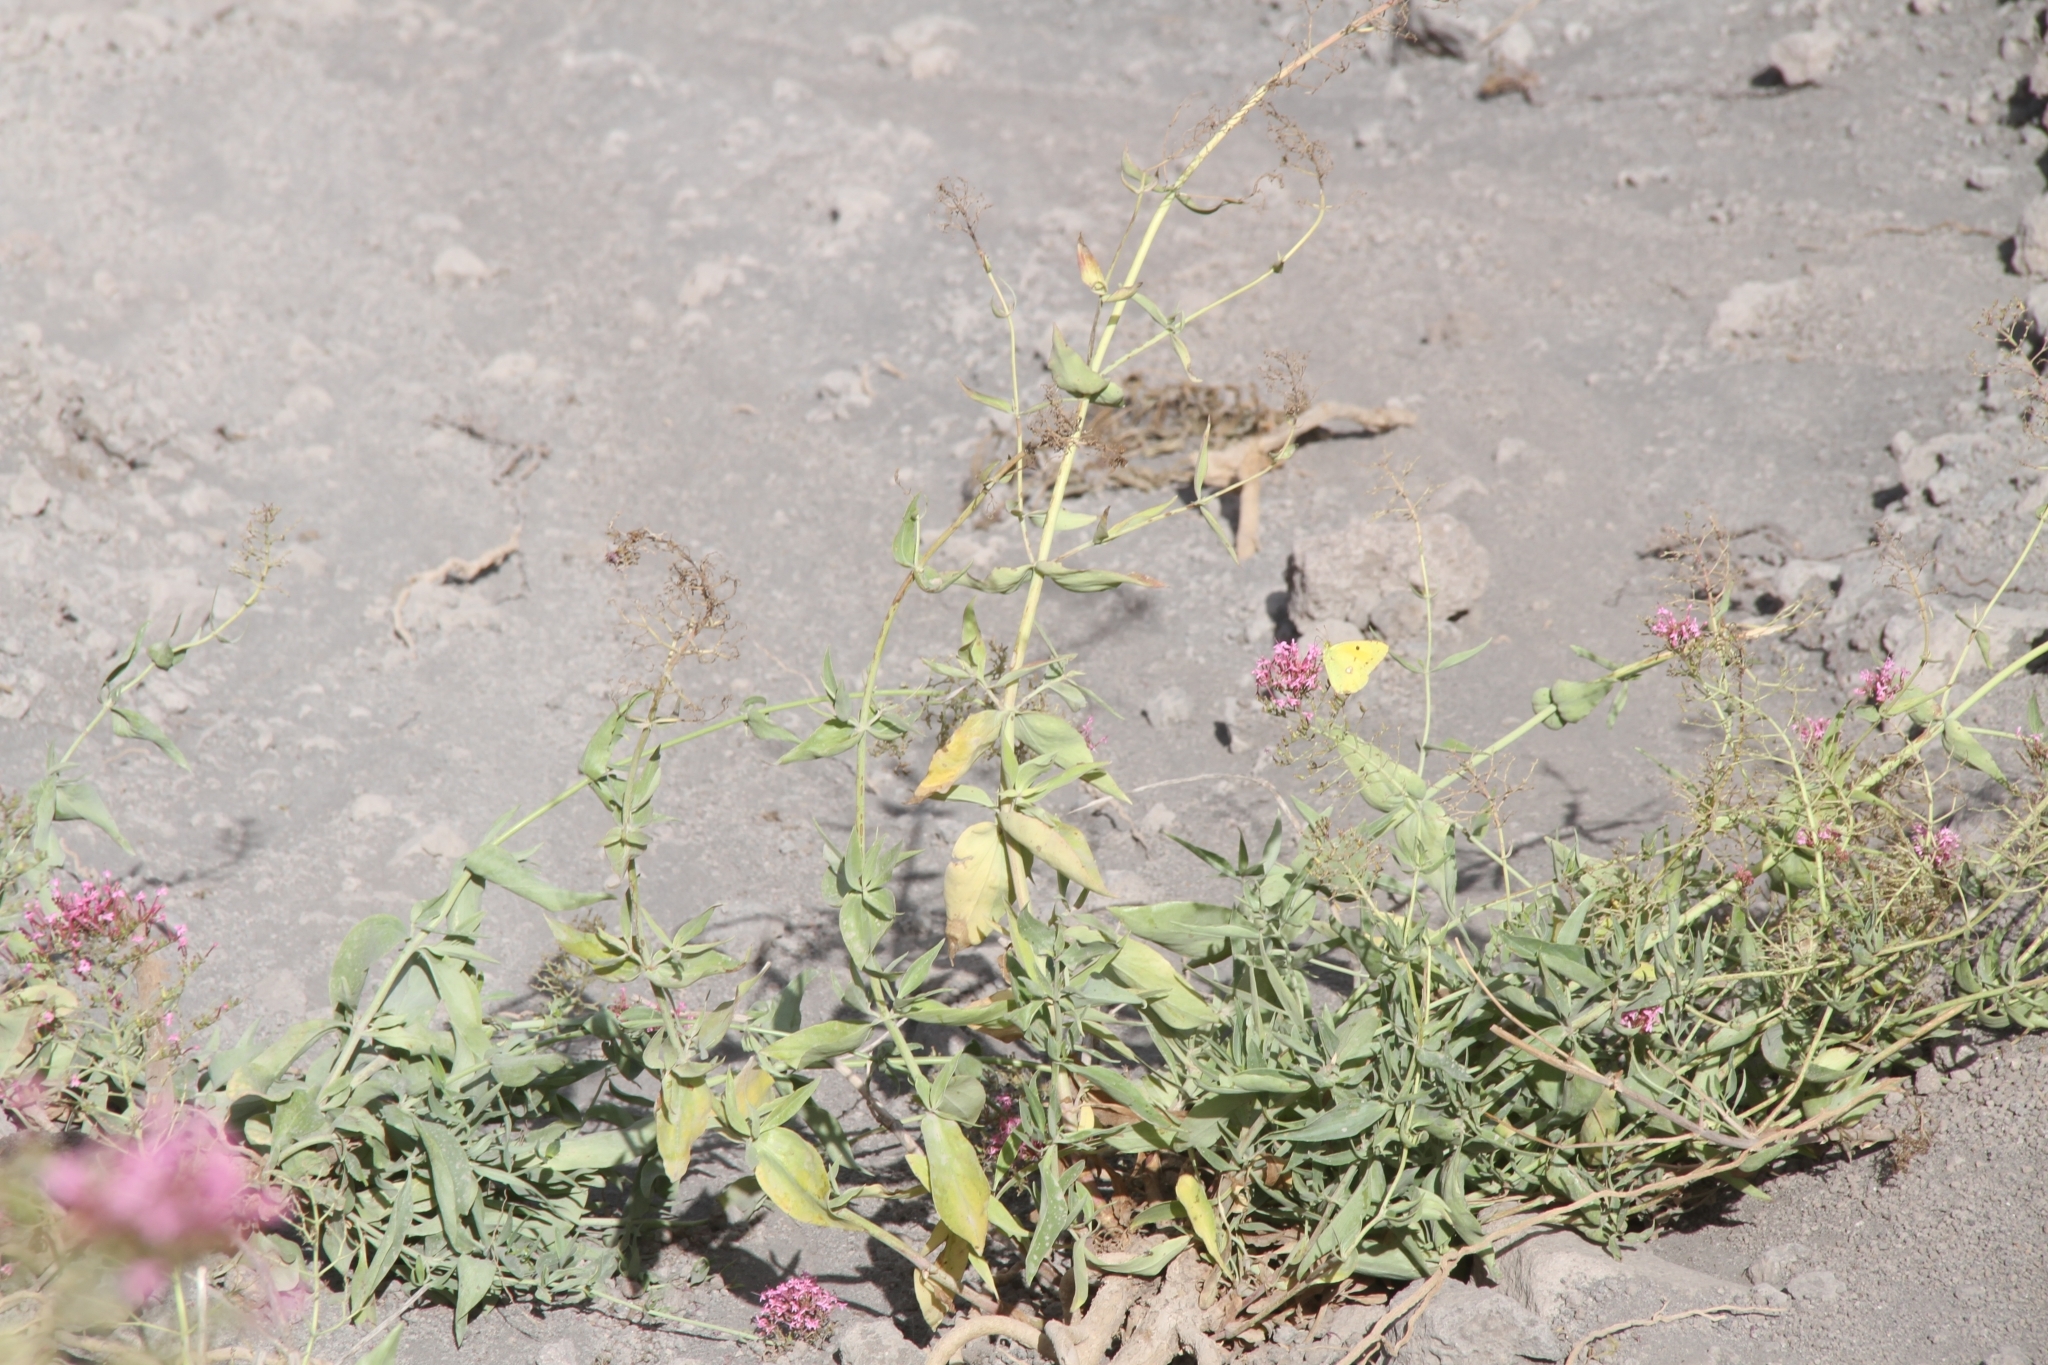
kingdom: Animalia
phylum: Arthropoda
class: Insecta
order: Lepidoptera
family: Pieridae
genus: Colias
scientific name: Colias croceus
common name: Clouded yellow
